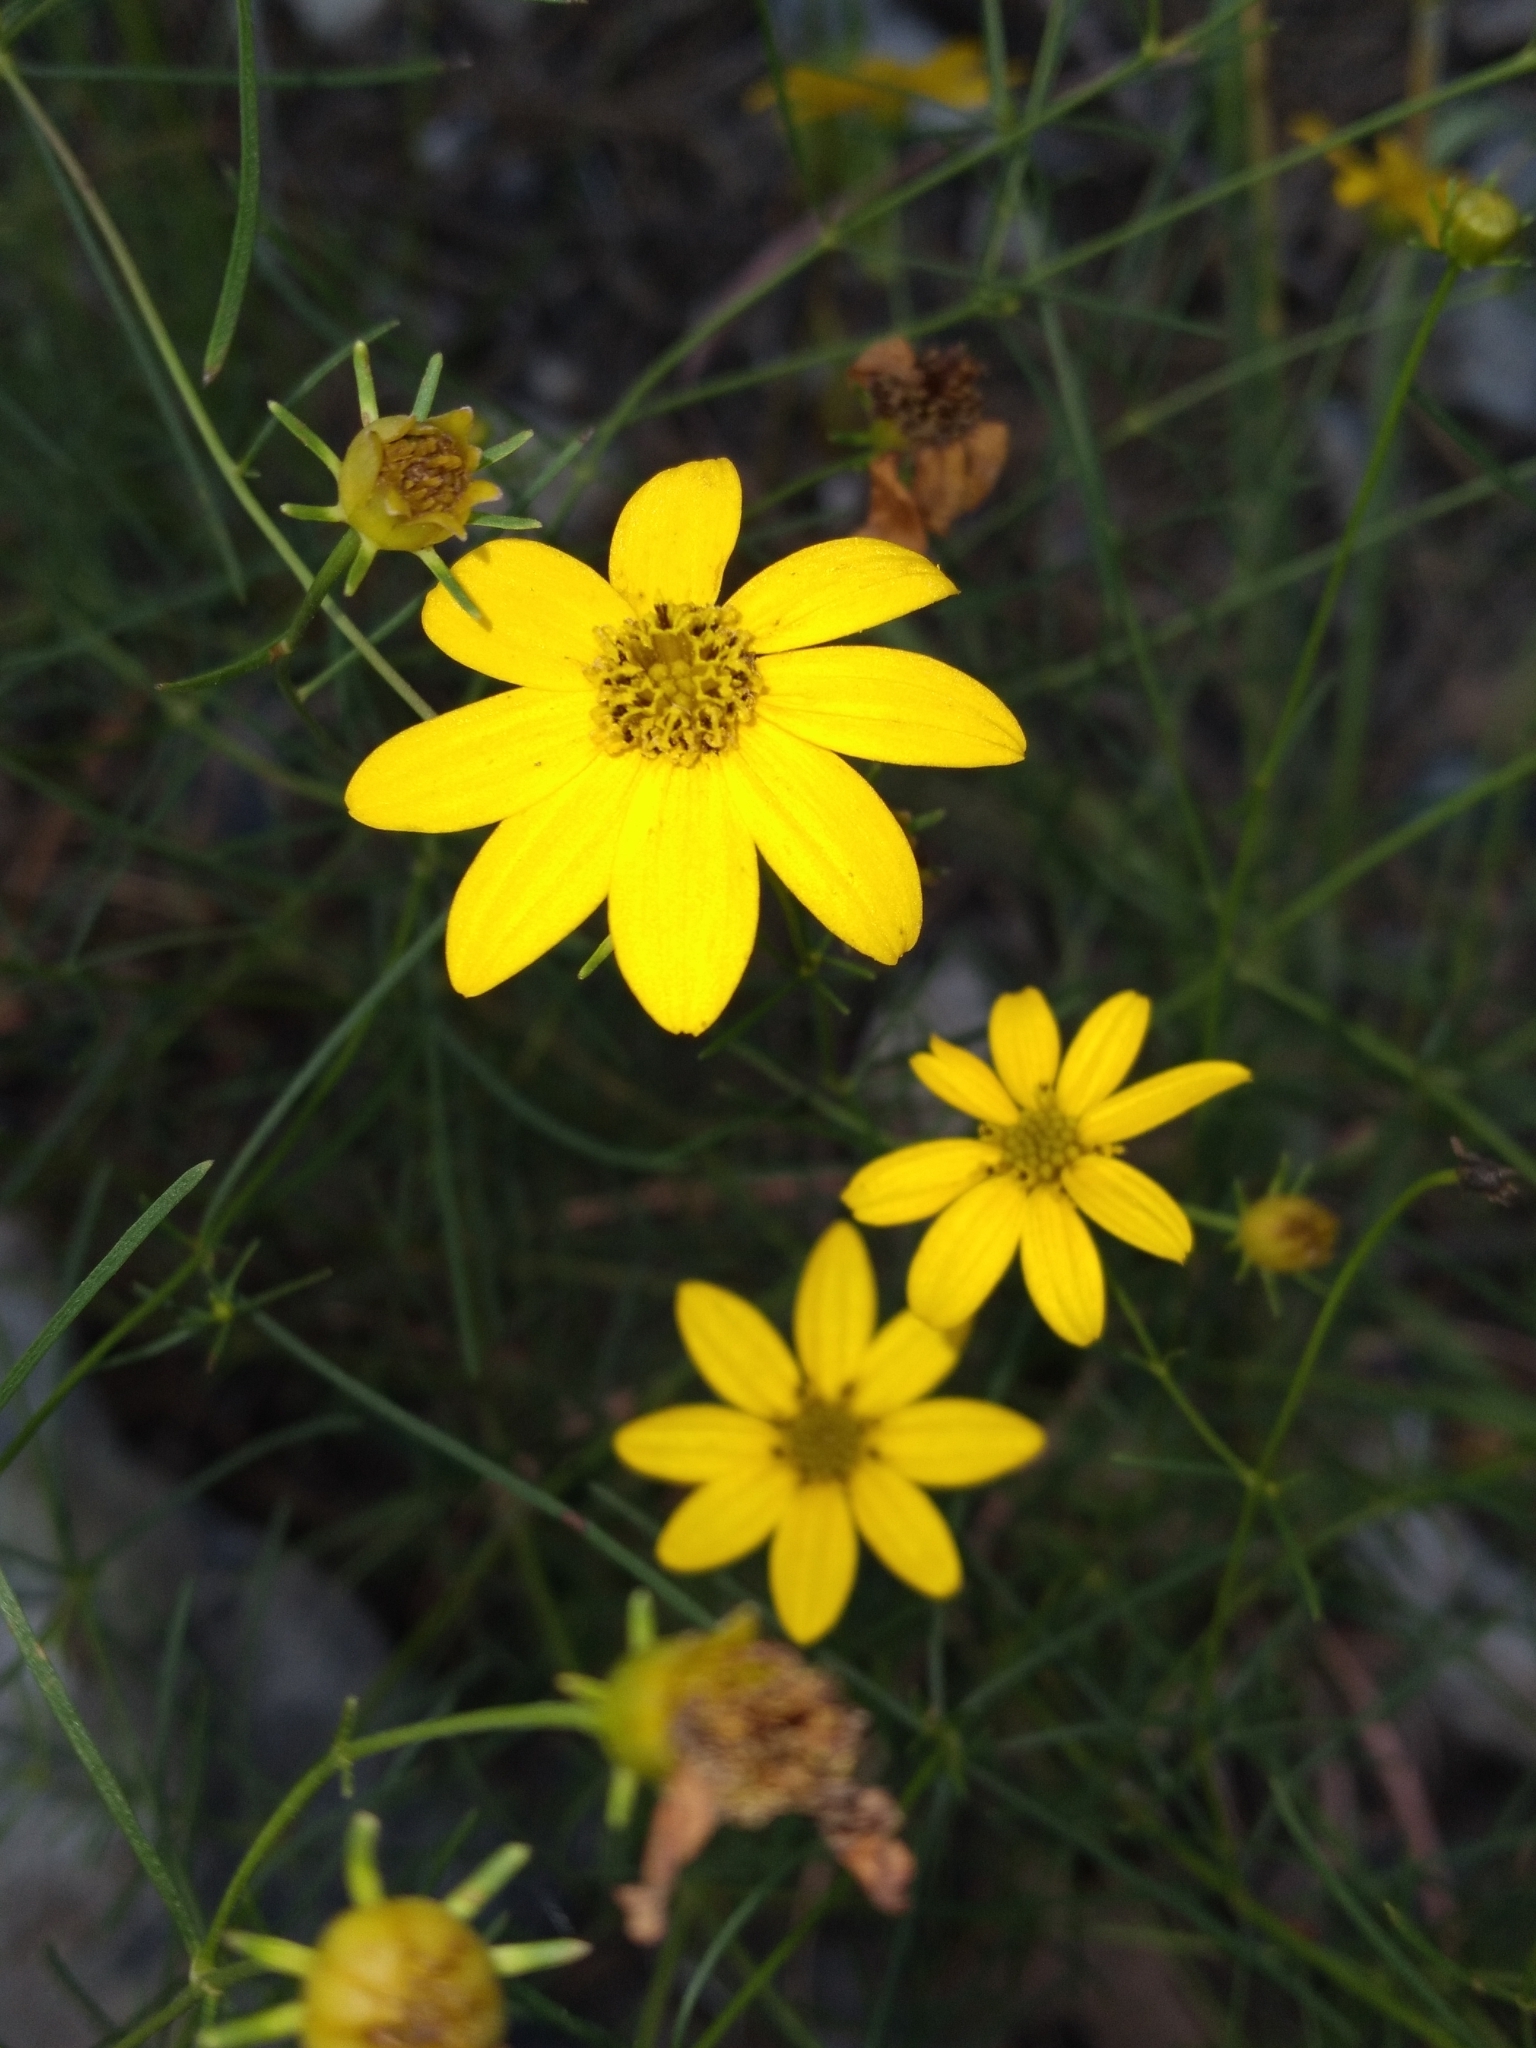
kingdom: Plantae
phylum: Tracheophyta
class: Magnoliopsida
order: Asterales
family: Asteraceae
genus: Coreopsis
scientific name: Coreopsis verticillata
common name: Whorled tickseed
